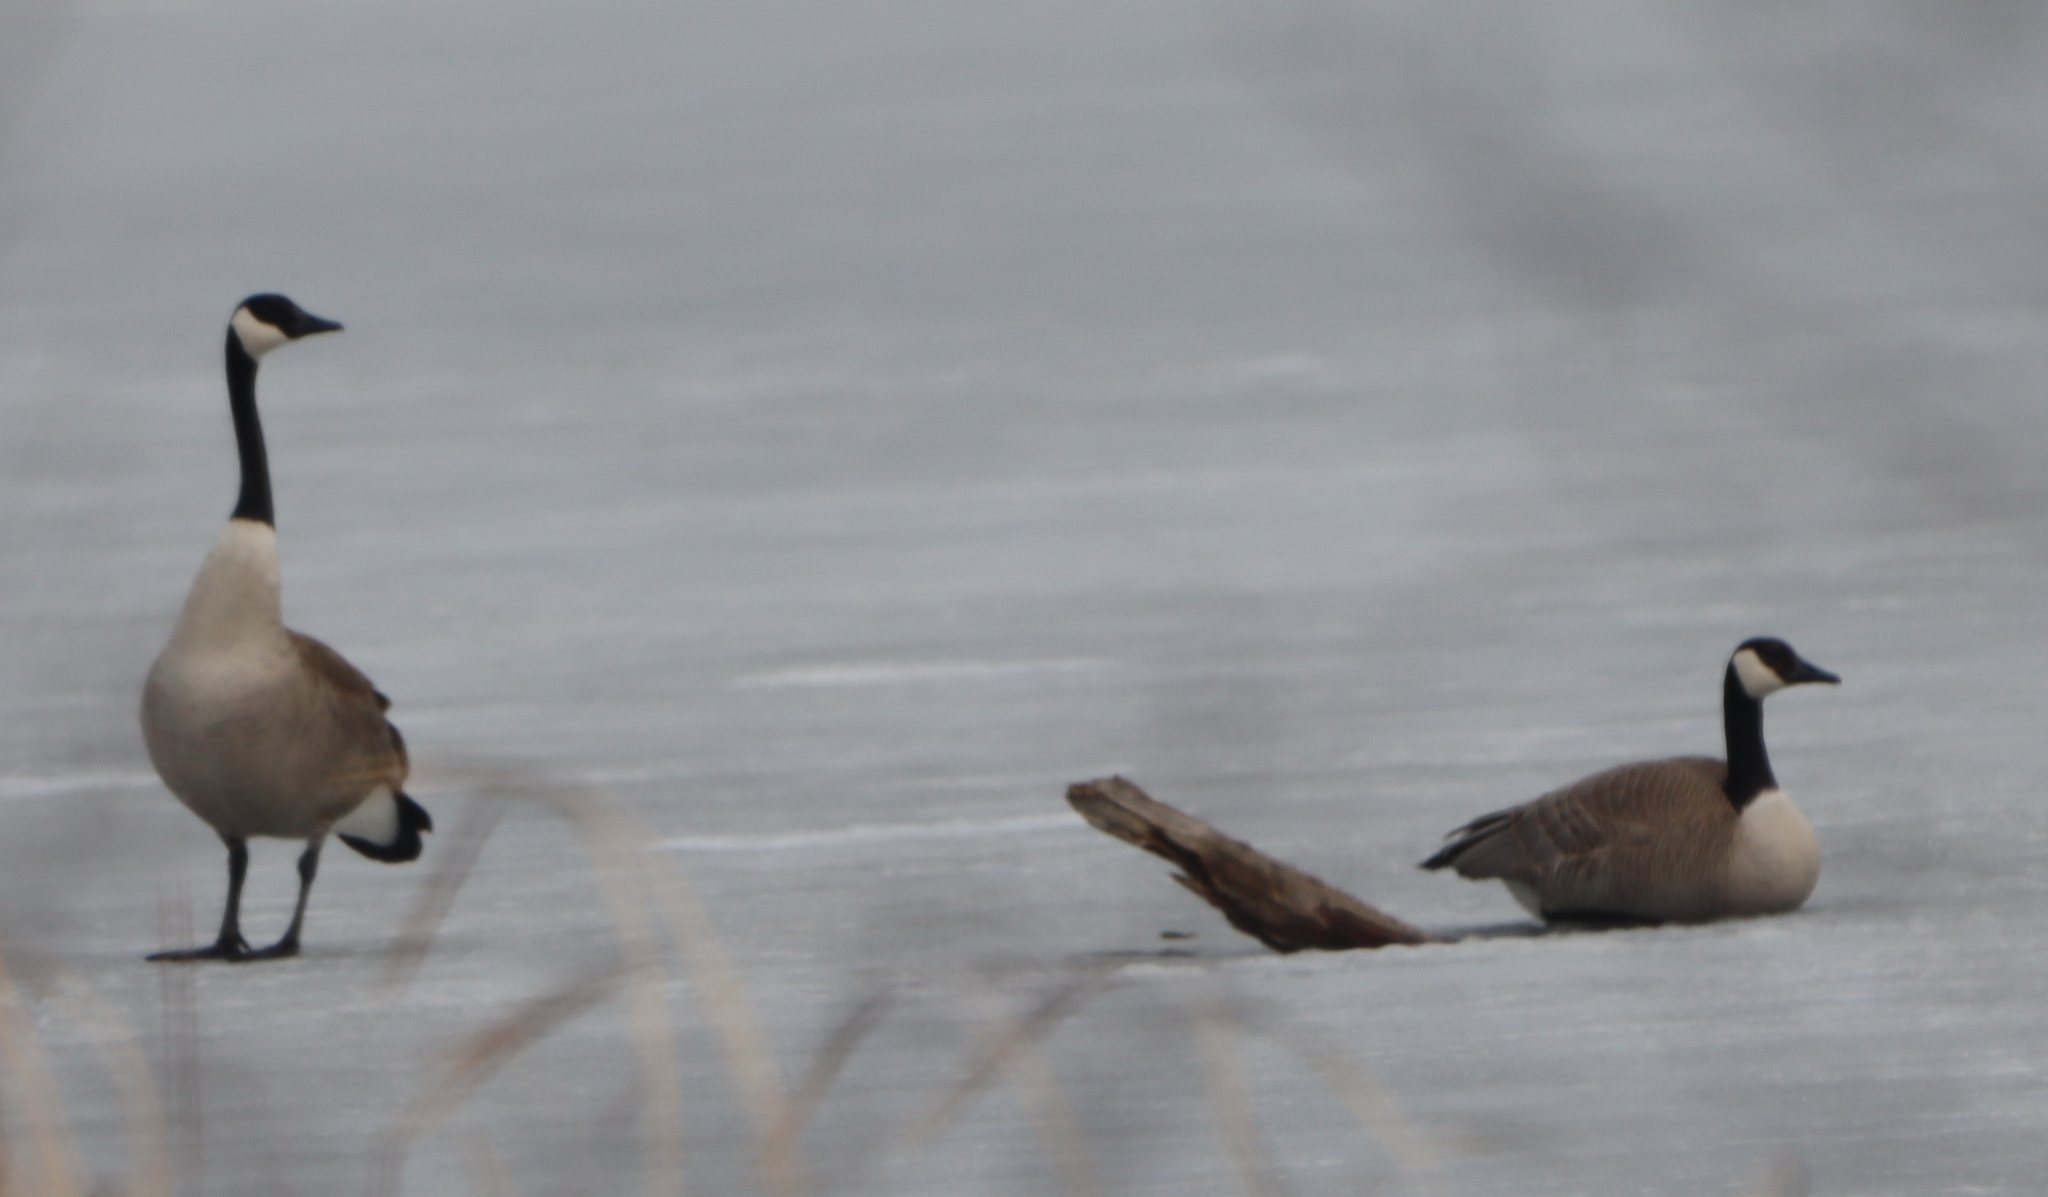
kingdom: Animalia
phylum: Chordata
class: Aves
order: Anseriformes
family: Anatidae
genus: Branta
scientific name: Branta canadensis
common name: Canada goose
